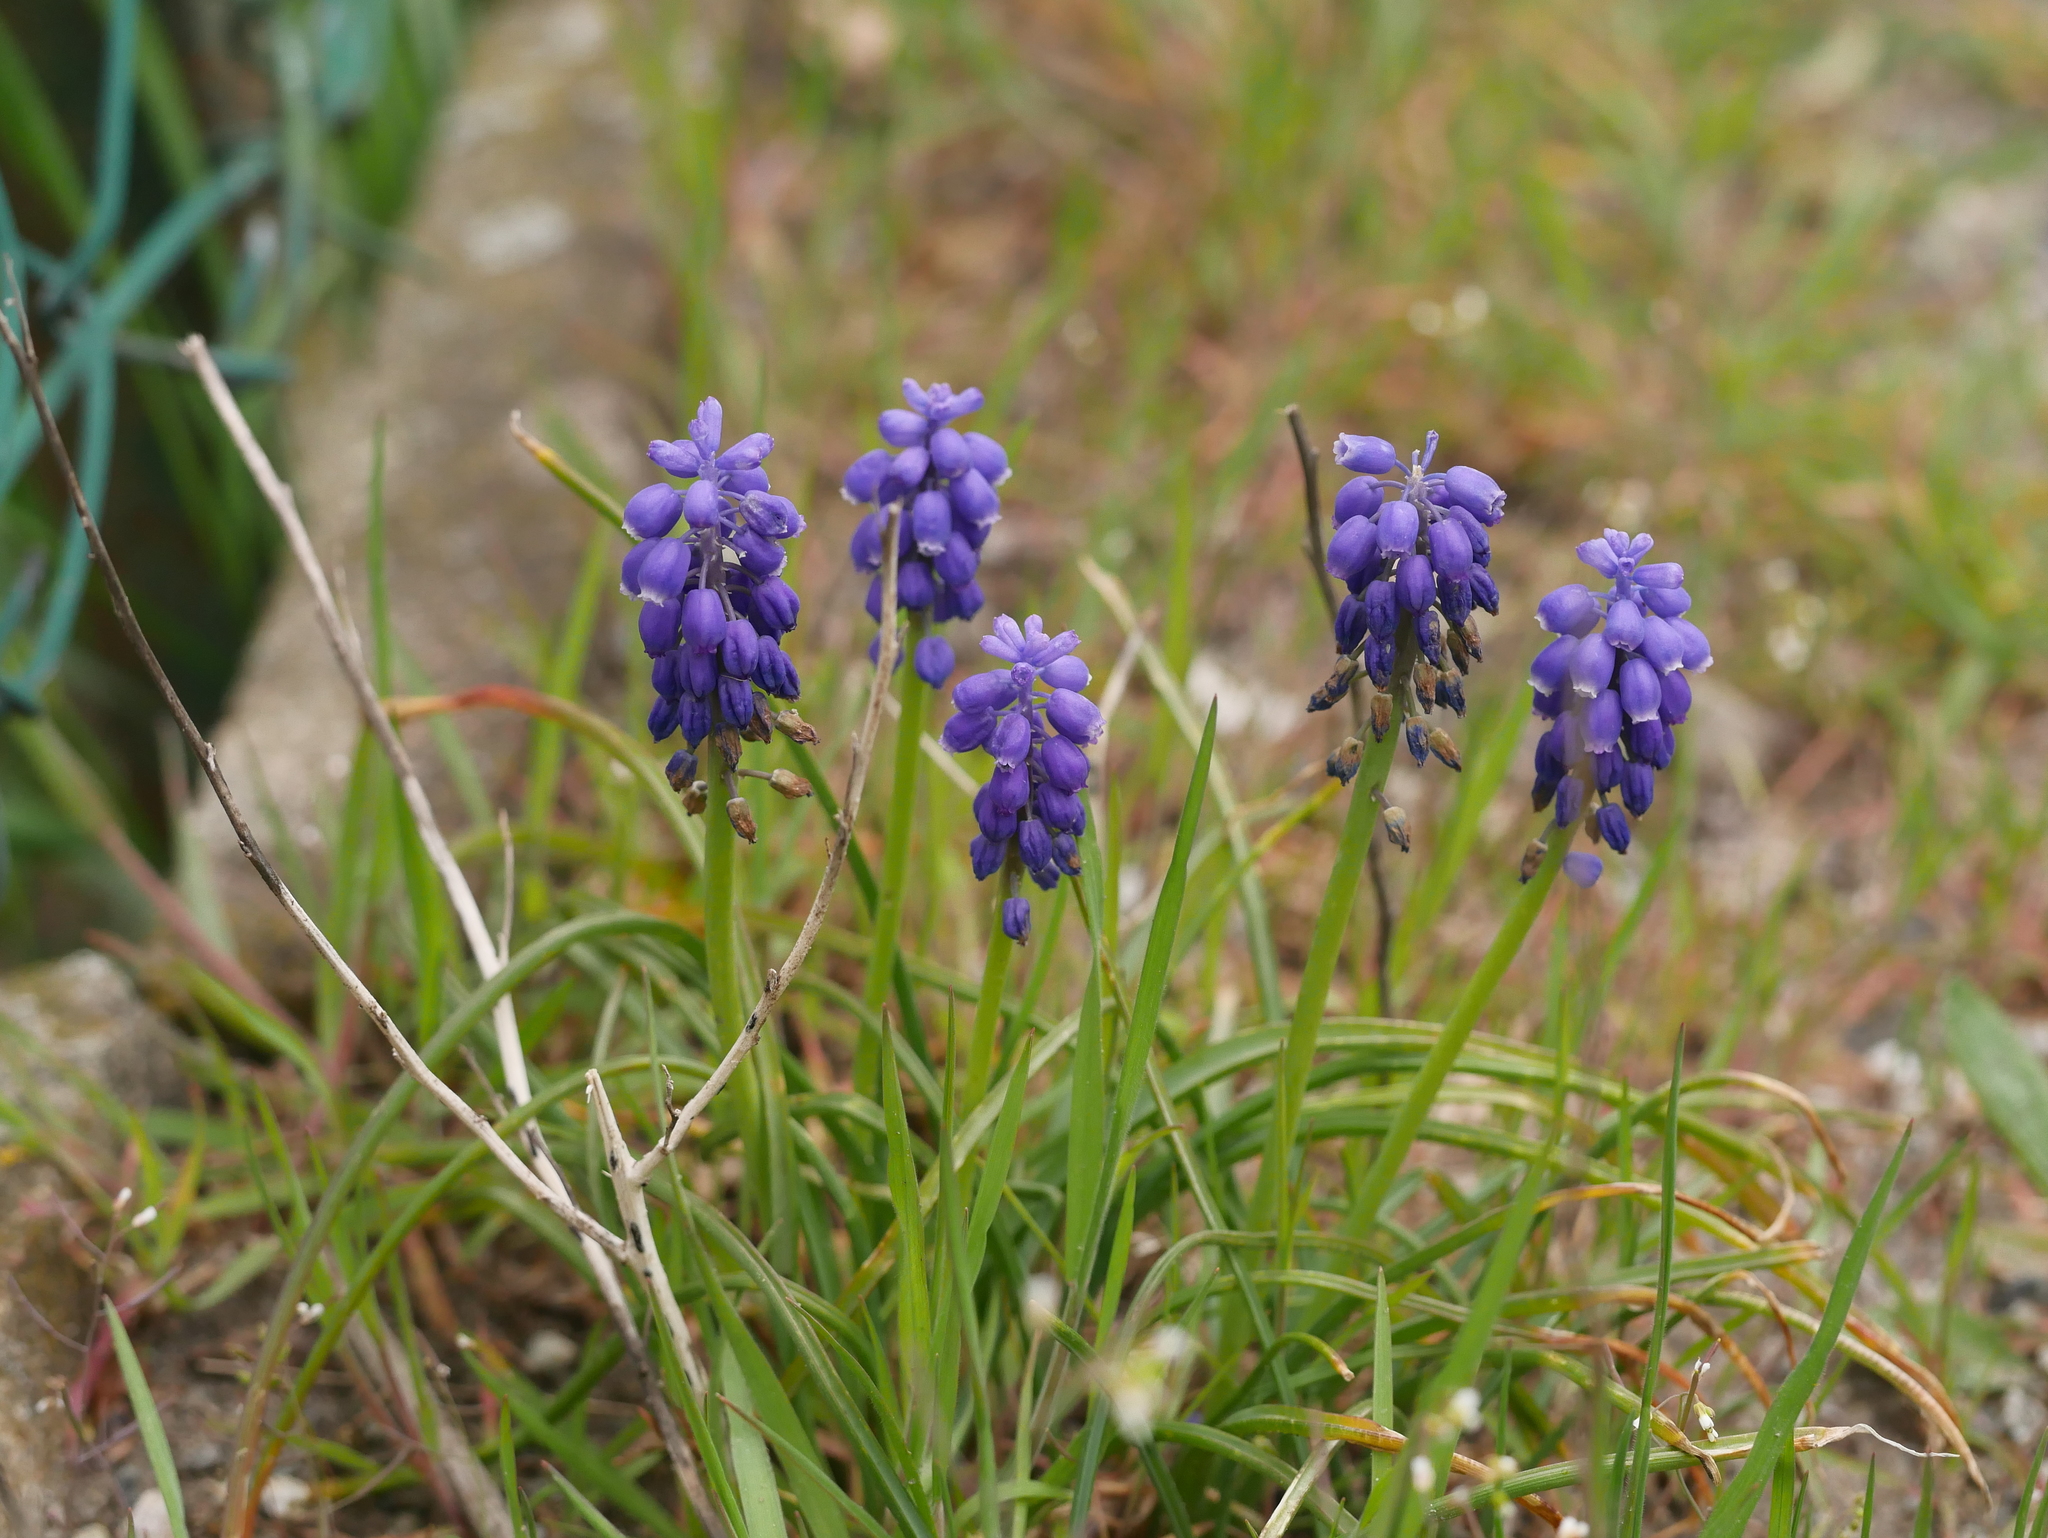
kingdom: Plantae
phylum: Tracheophyta
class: Liliopsida
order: Asparagales
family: Asparagaceae
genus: Muscari
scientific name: Muscari neglectum
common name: Grape-hyacinth
